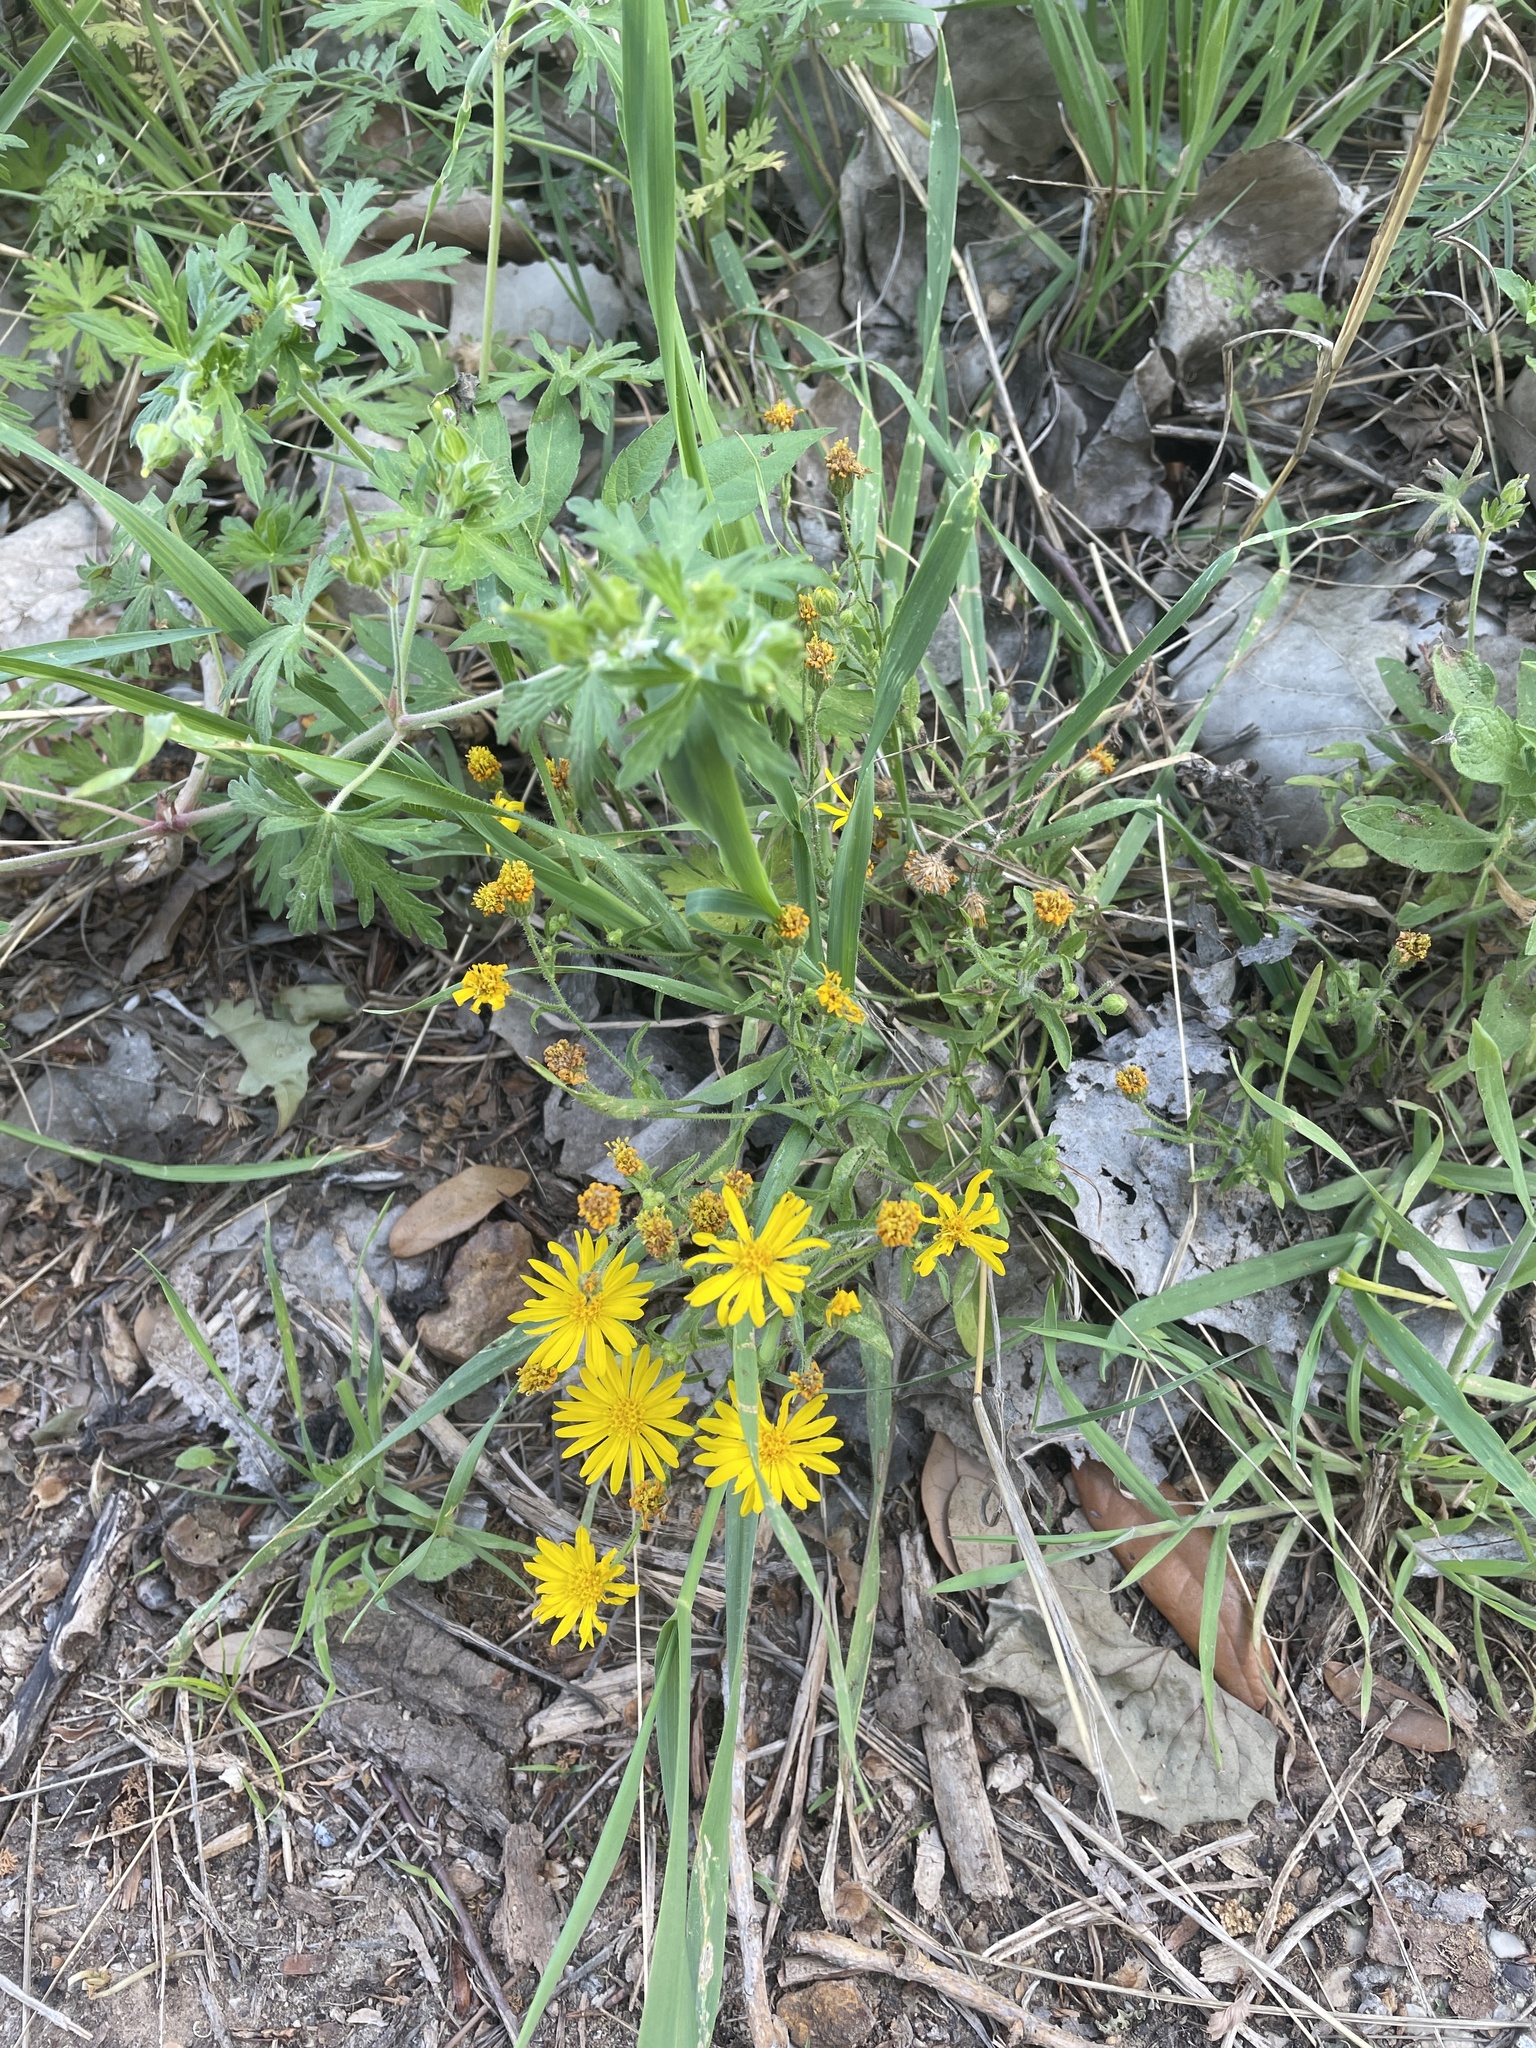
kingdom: Plantae
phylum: Tracheophyta
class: Magnoliopsida
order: Asterales
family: Asteraceae
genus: Heterotheca
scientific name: Heterotheca subaxillaris
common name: Camphorweed
